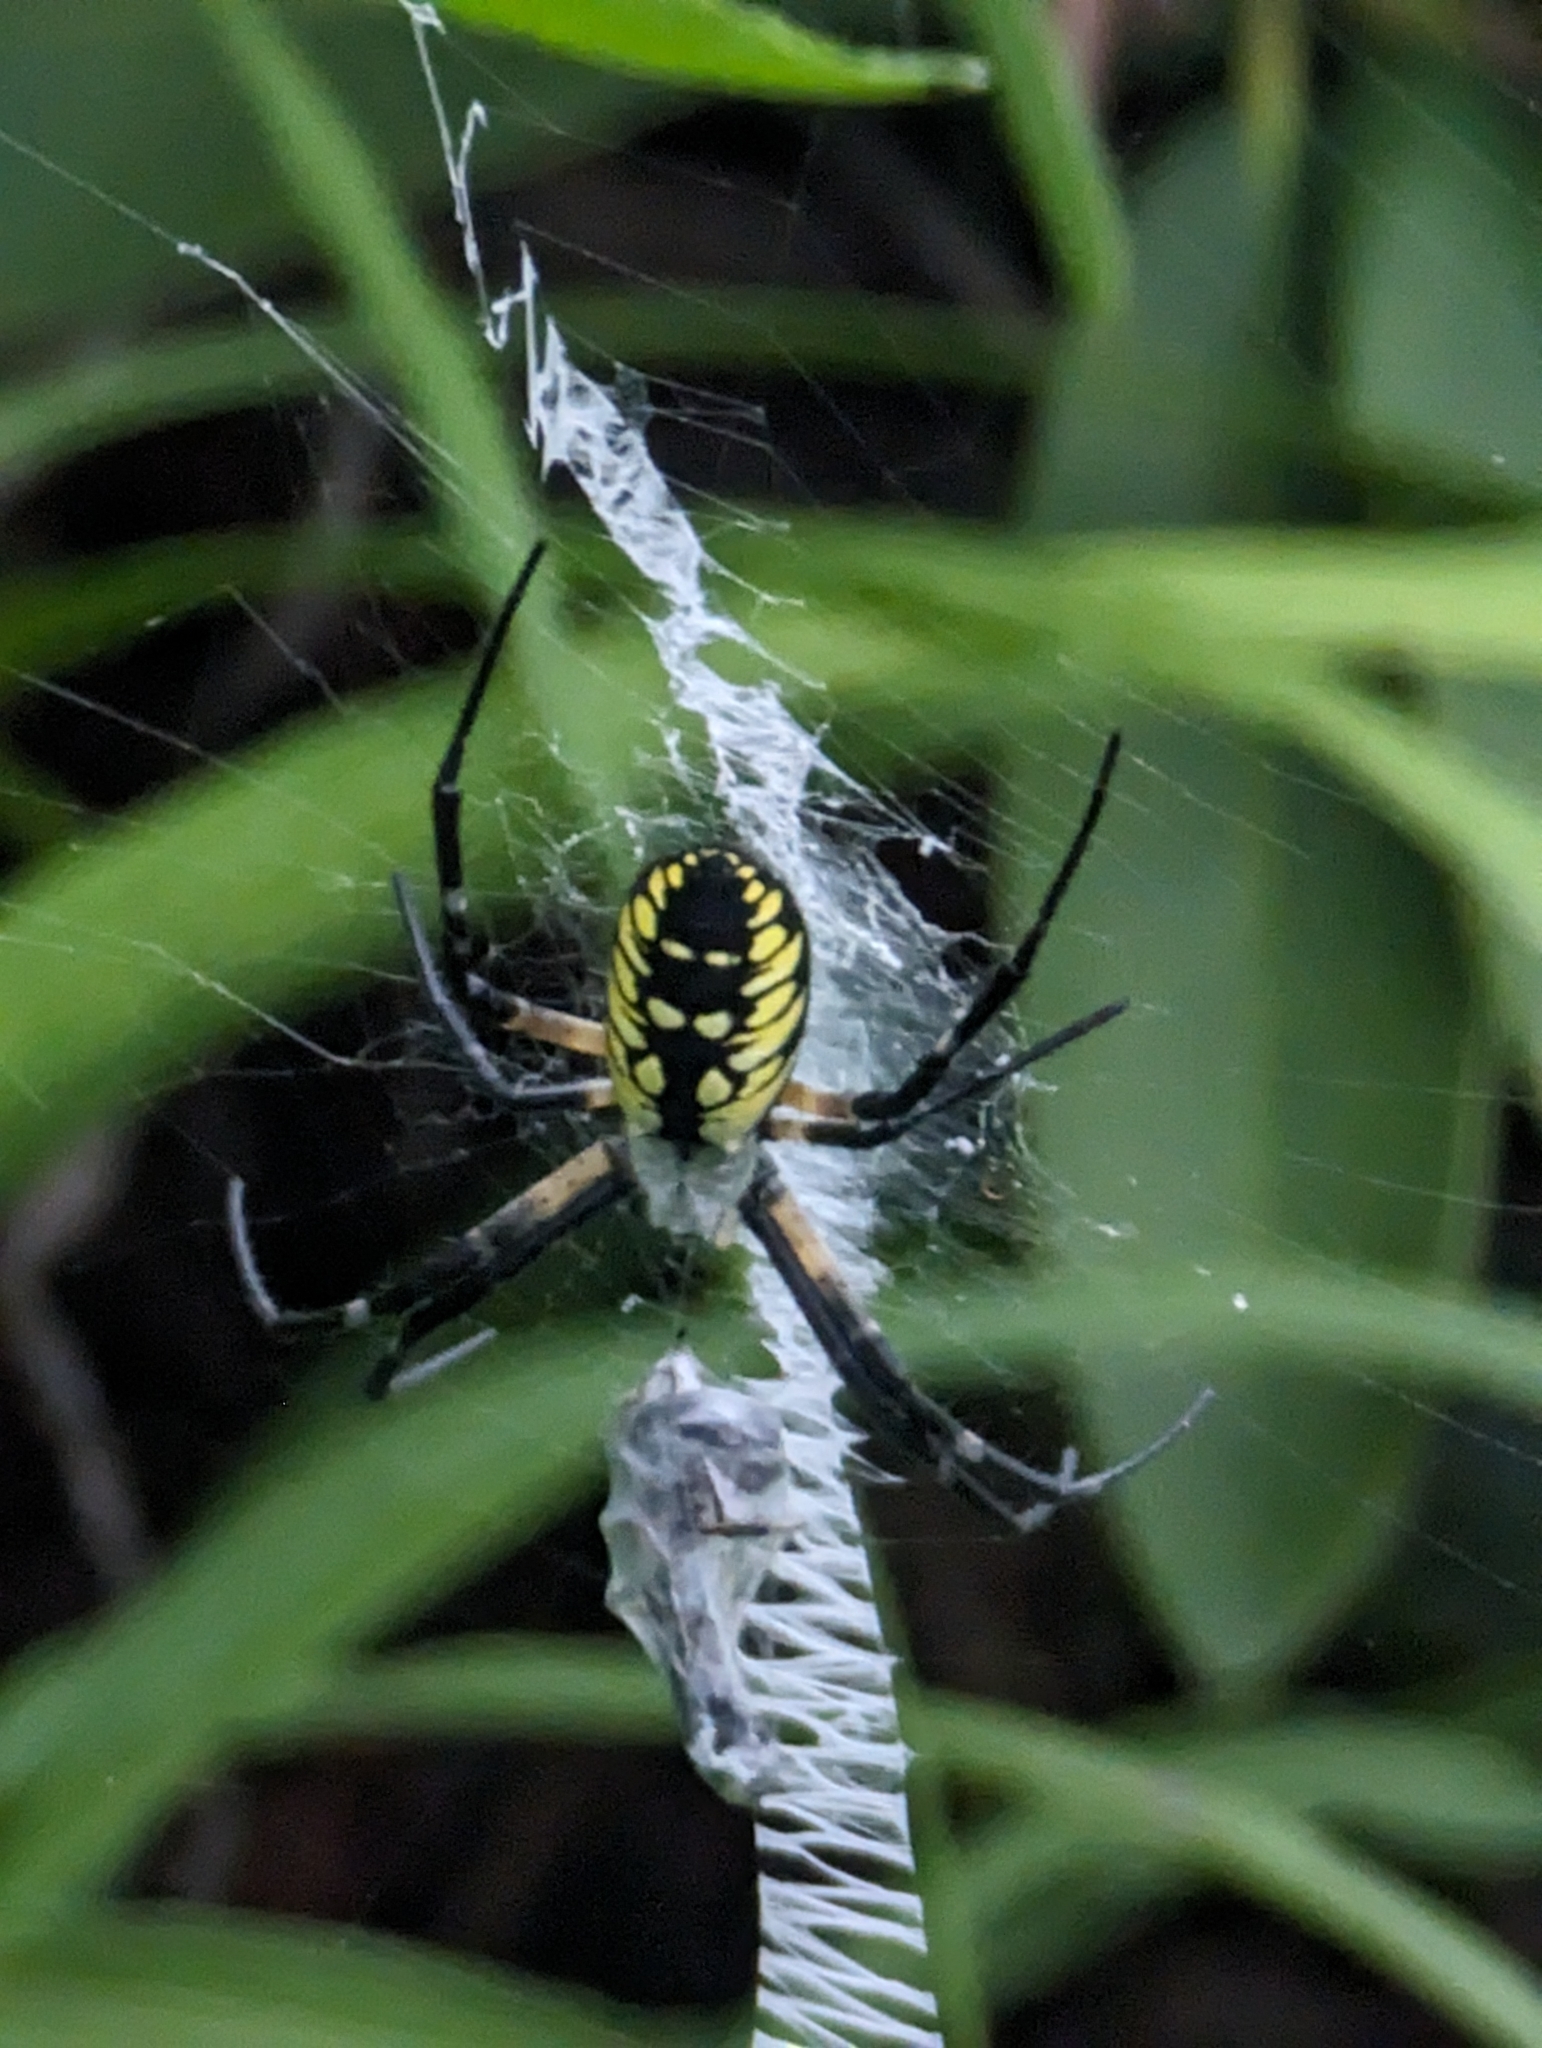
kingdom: Animalia
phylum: Arthropoda
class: Arachnida
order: Araneae
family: Araneidae
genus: Argiope
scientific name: Argiope aurantia
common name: Orb weavers
